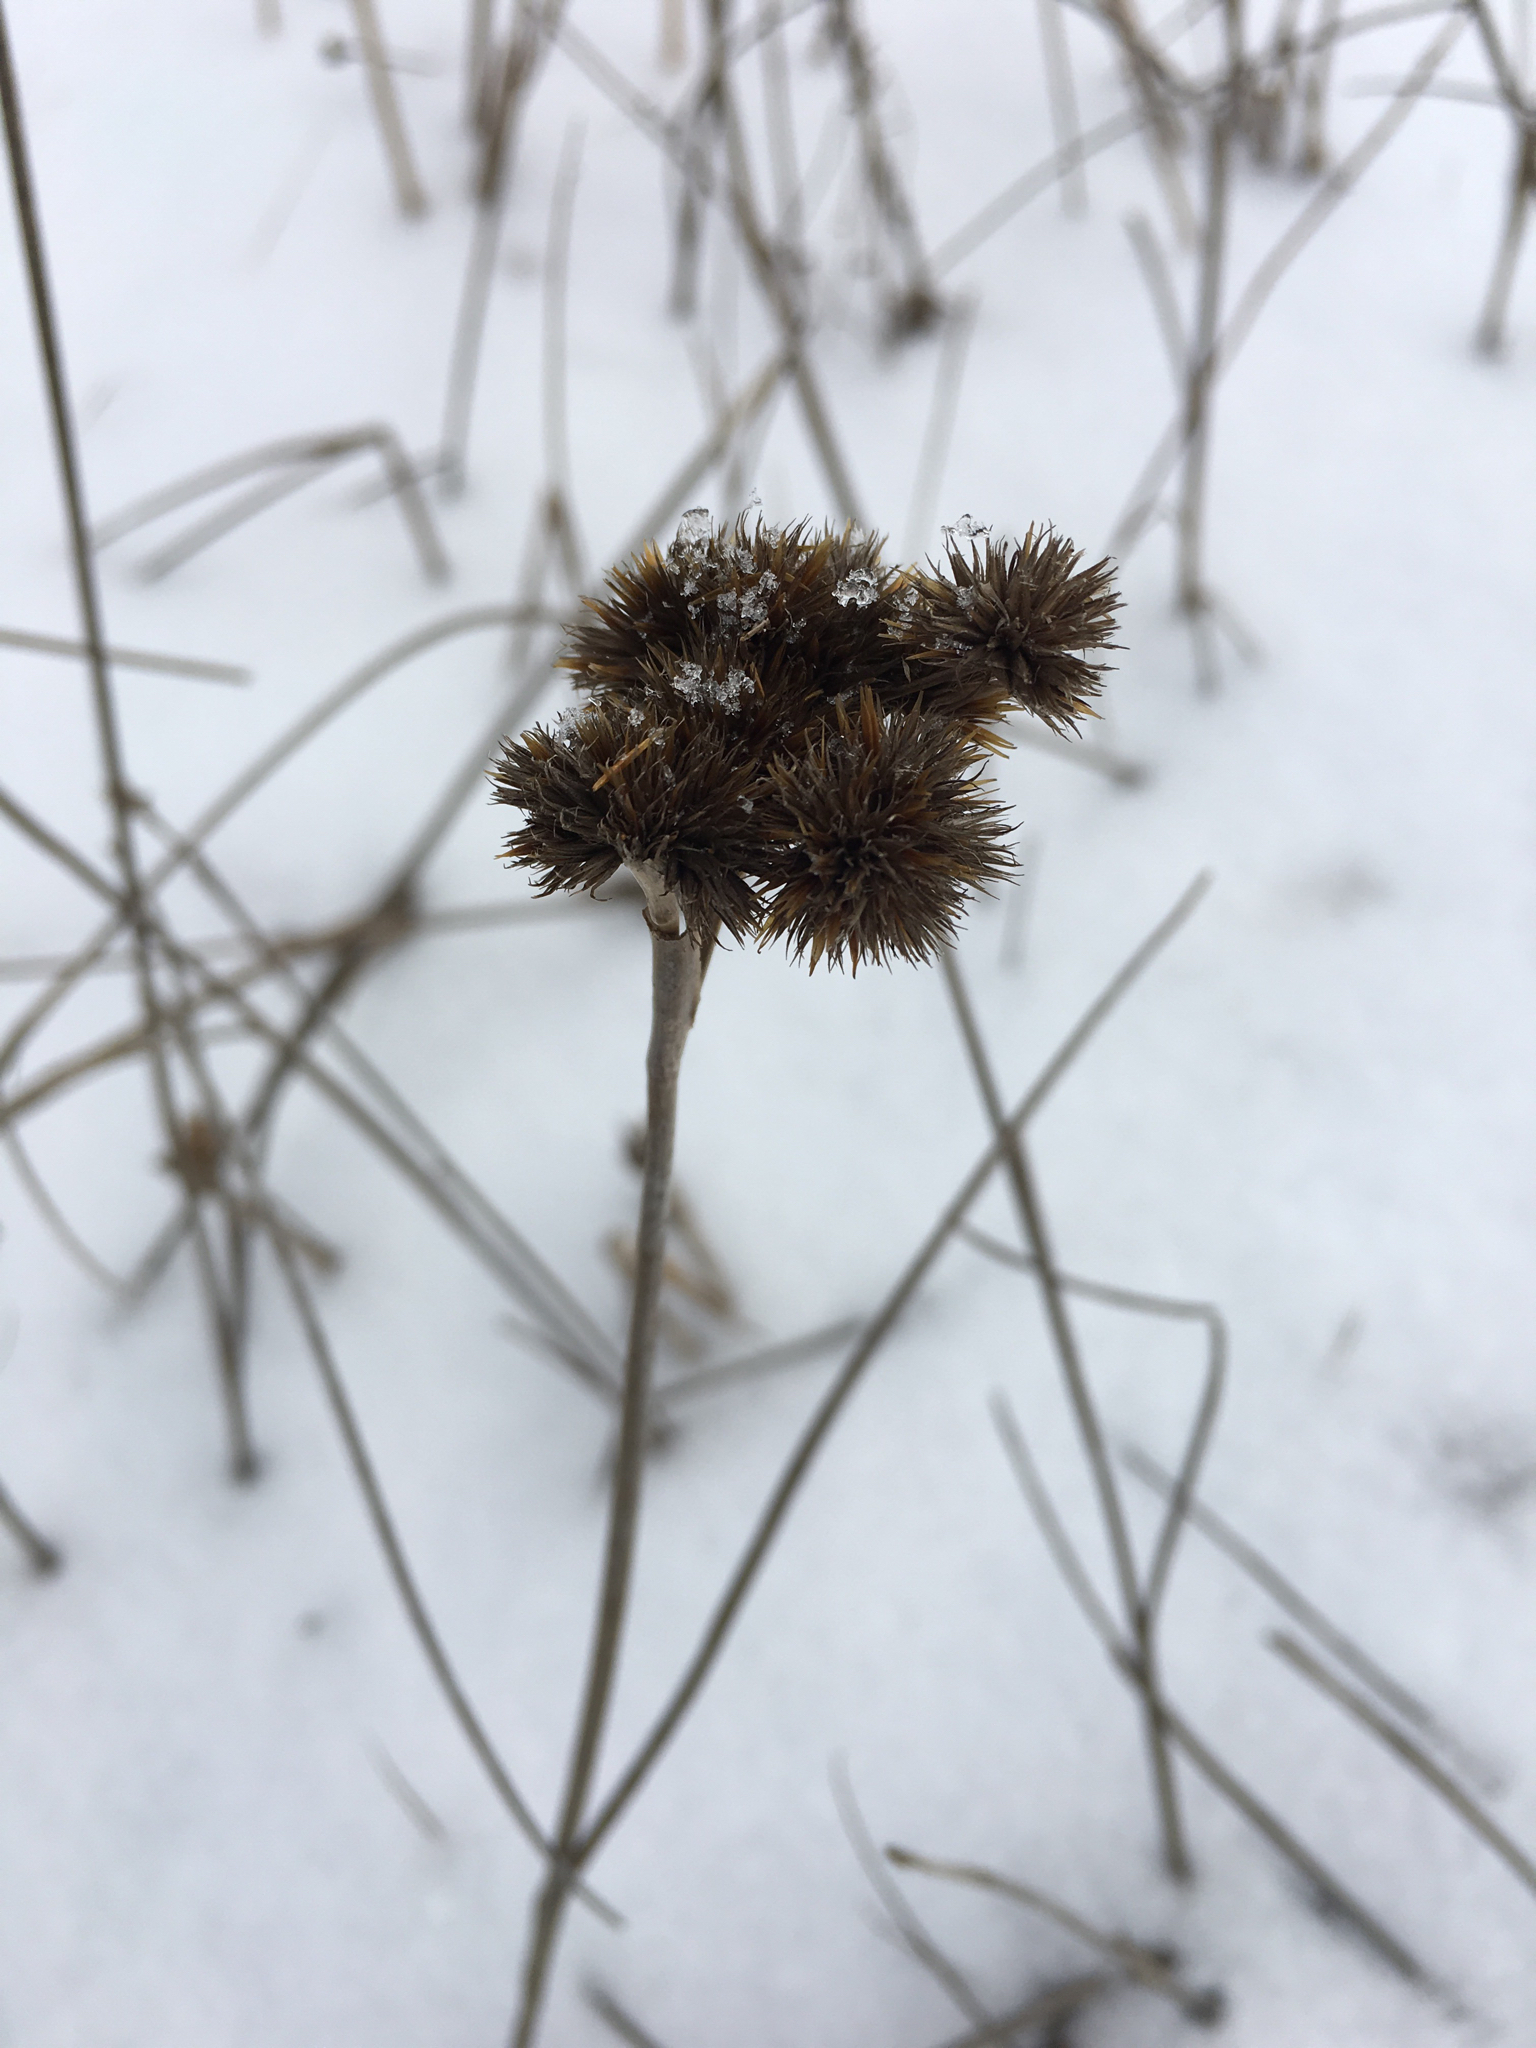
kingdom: Plantae
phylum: Tracheophyta
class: Liliopsida
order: Poales
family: Juncaceae
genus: Juncus
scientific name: Juncus torreyi
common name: Torrey's rush
